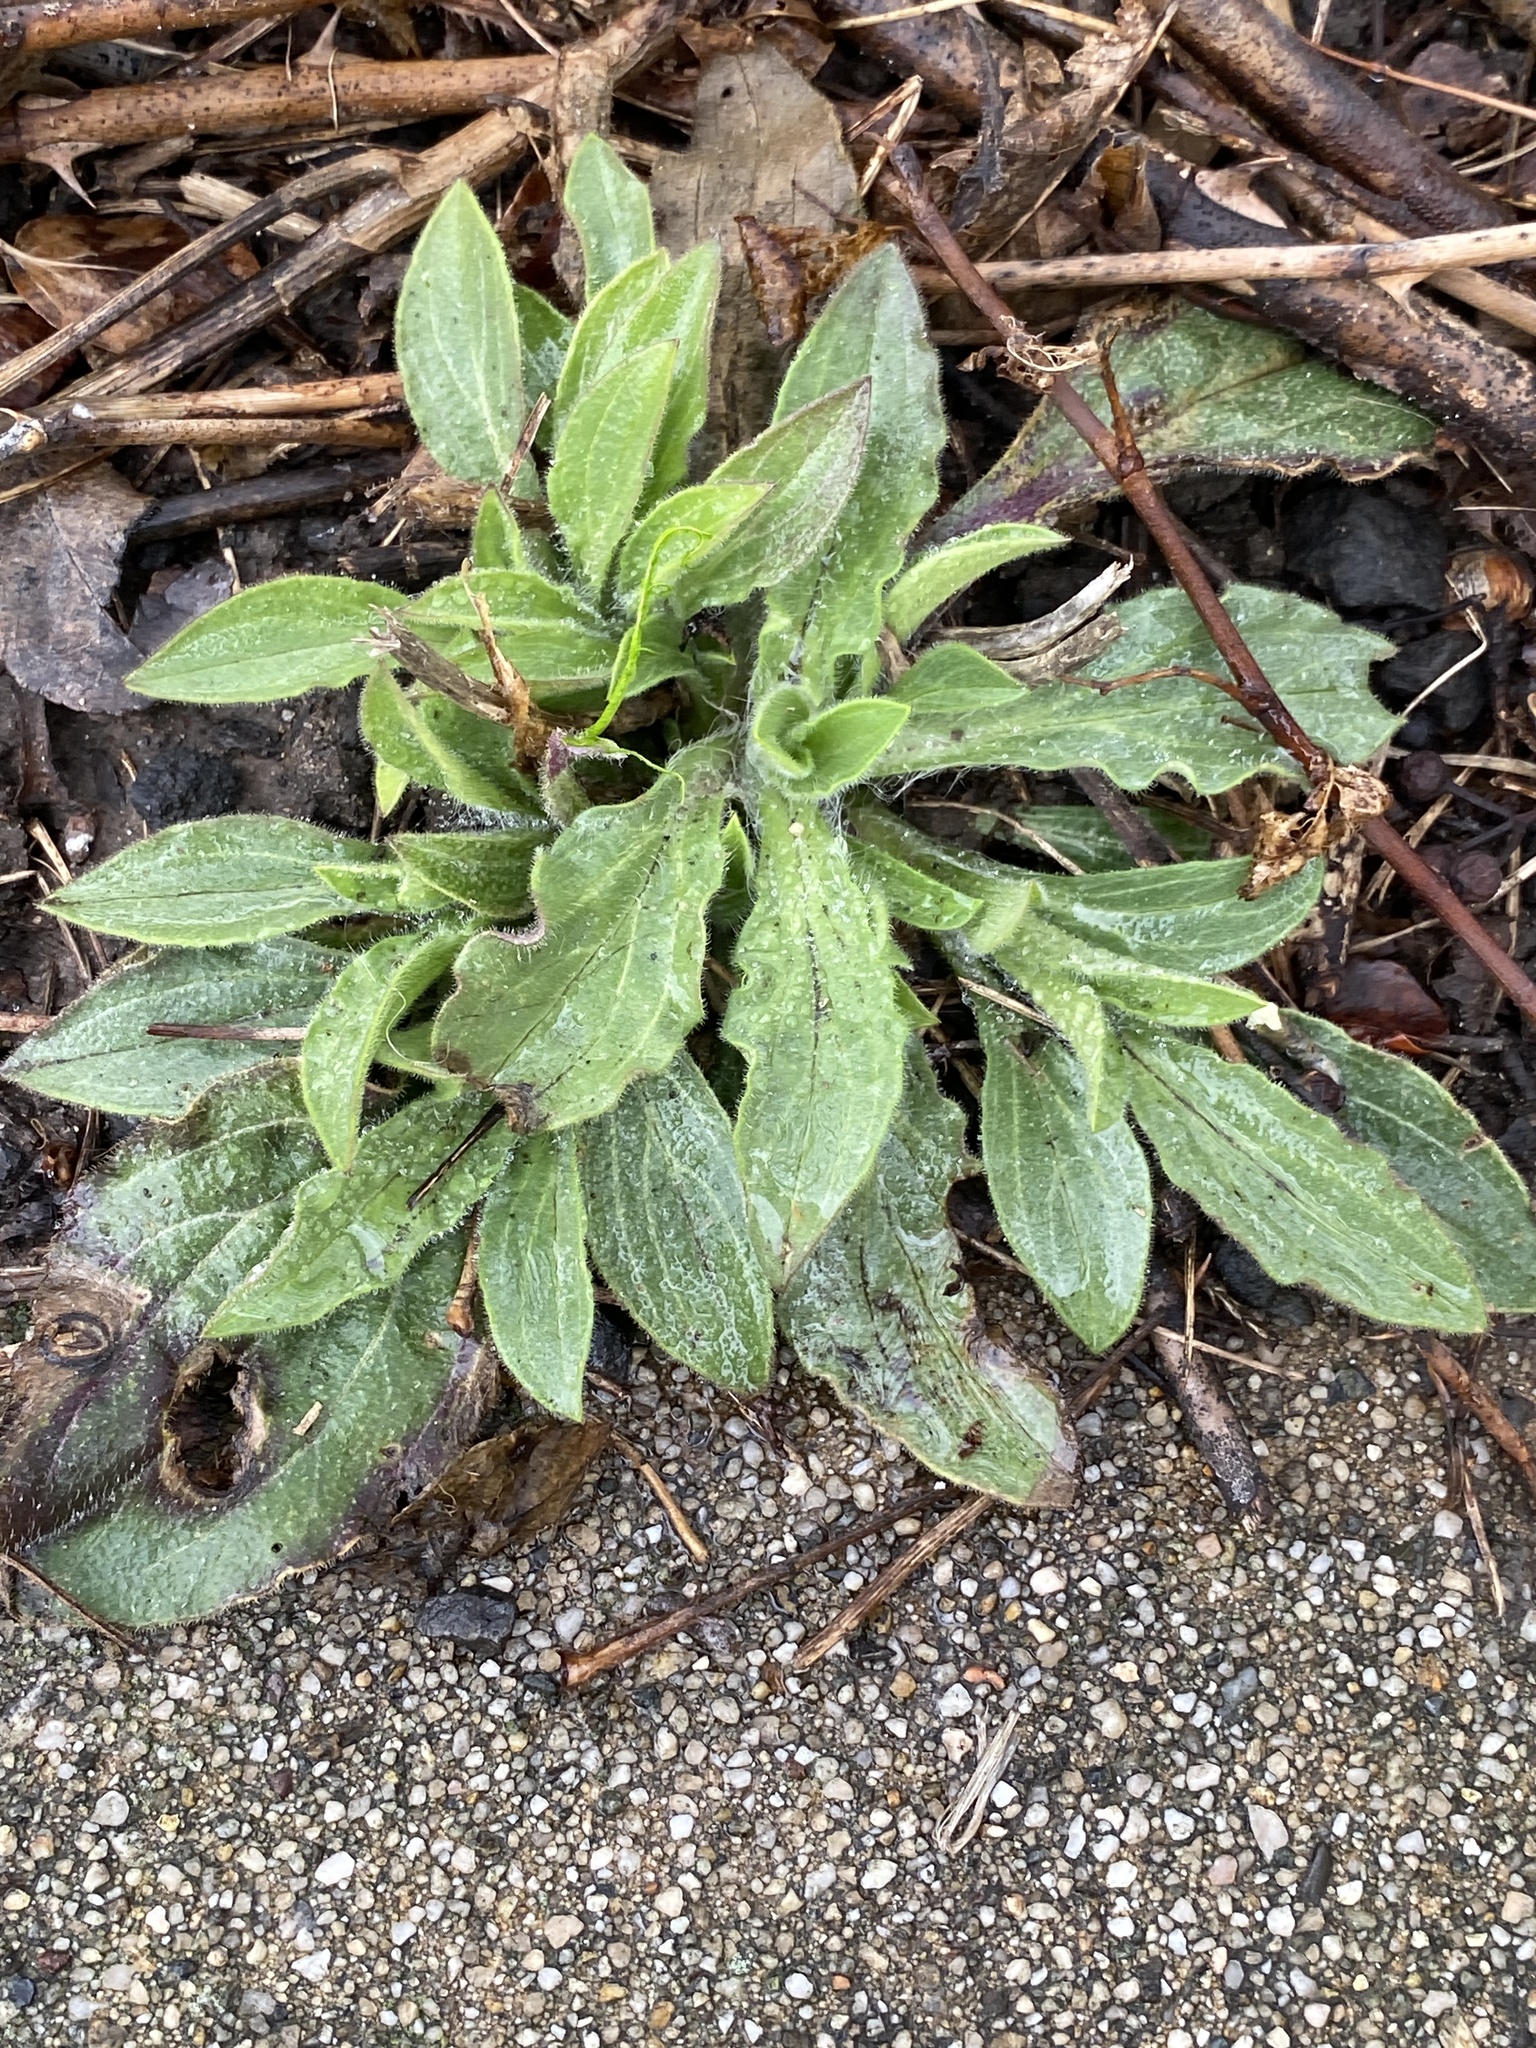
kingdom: Plantae
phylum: Tracheophyta
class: Magnoliopsida
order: Caryophyllales
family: Caryophyllaceae
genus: Silene
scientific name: Silene latifolia
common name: White campion
